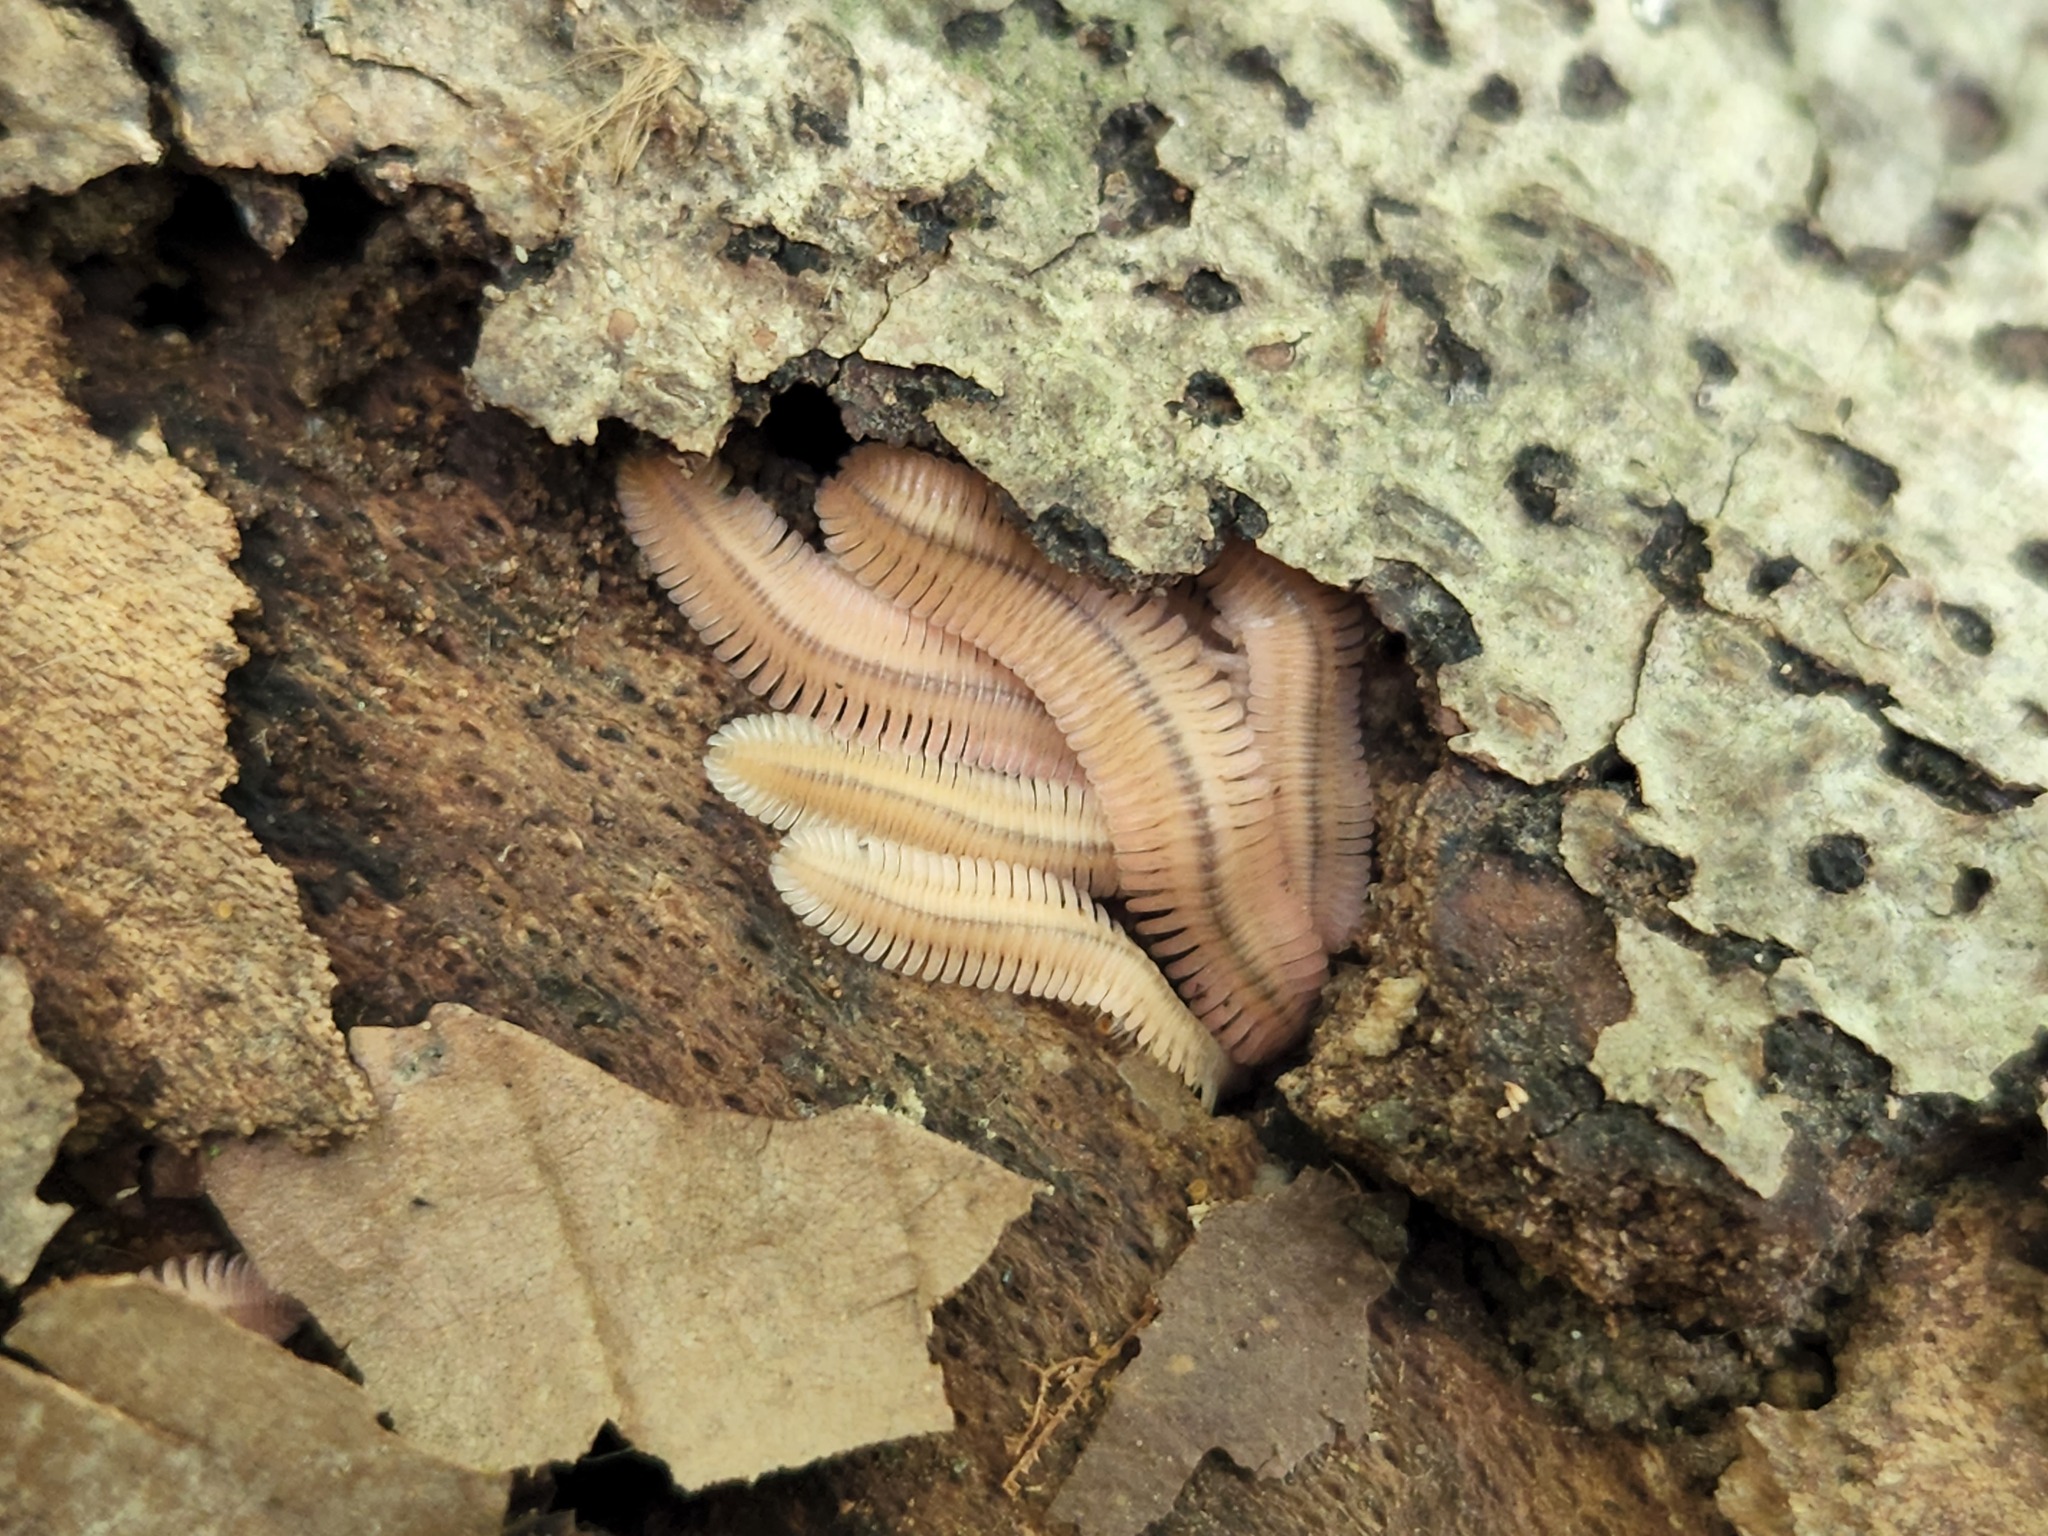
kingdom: Animalia
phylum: Arthropoda
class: Diplopoda
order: Platydesmida
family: Andrognathidae
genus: Brachycybe
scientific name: Brachycybe lecontii
